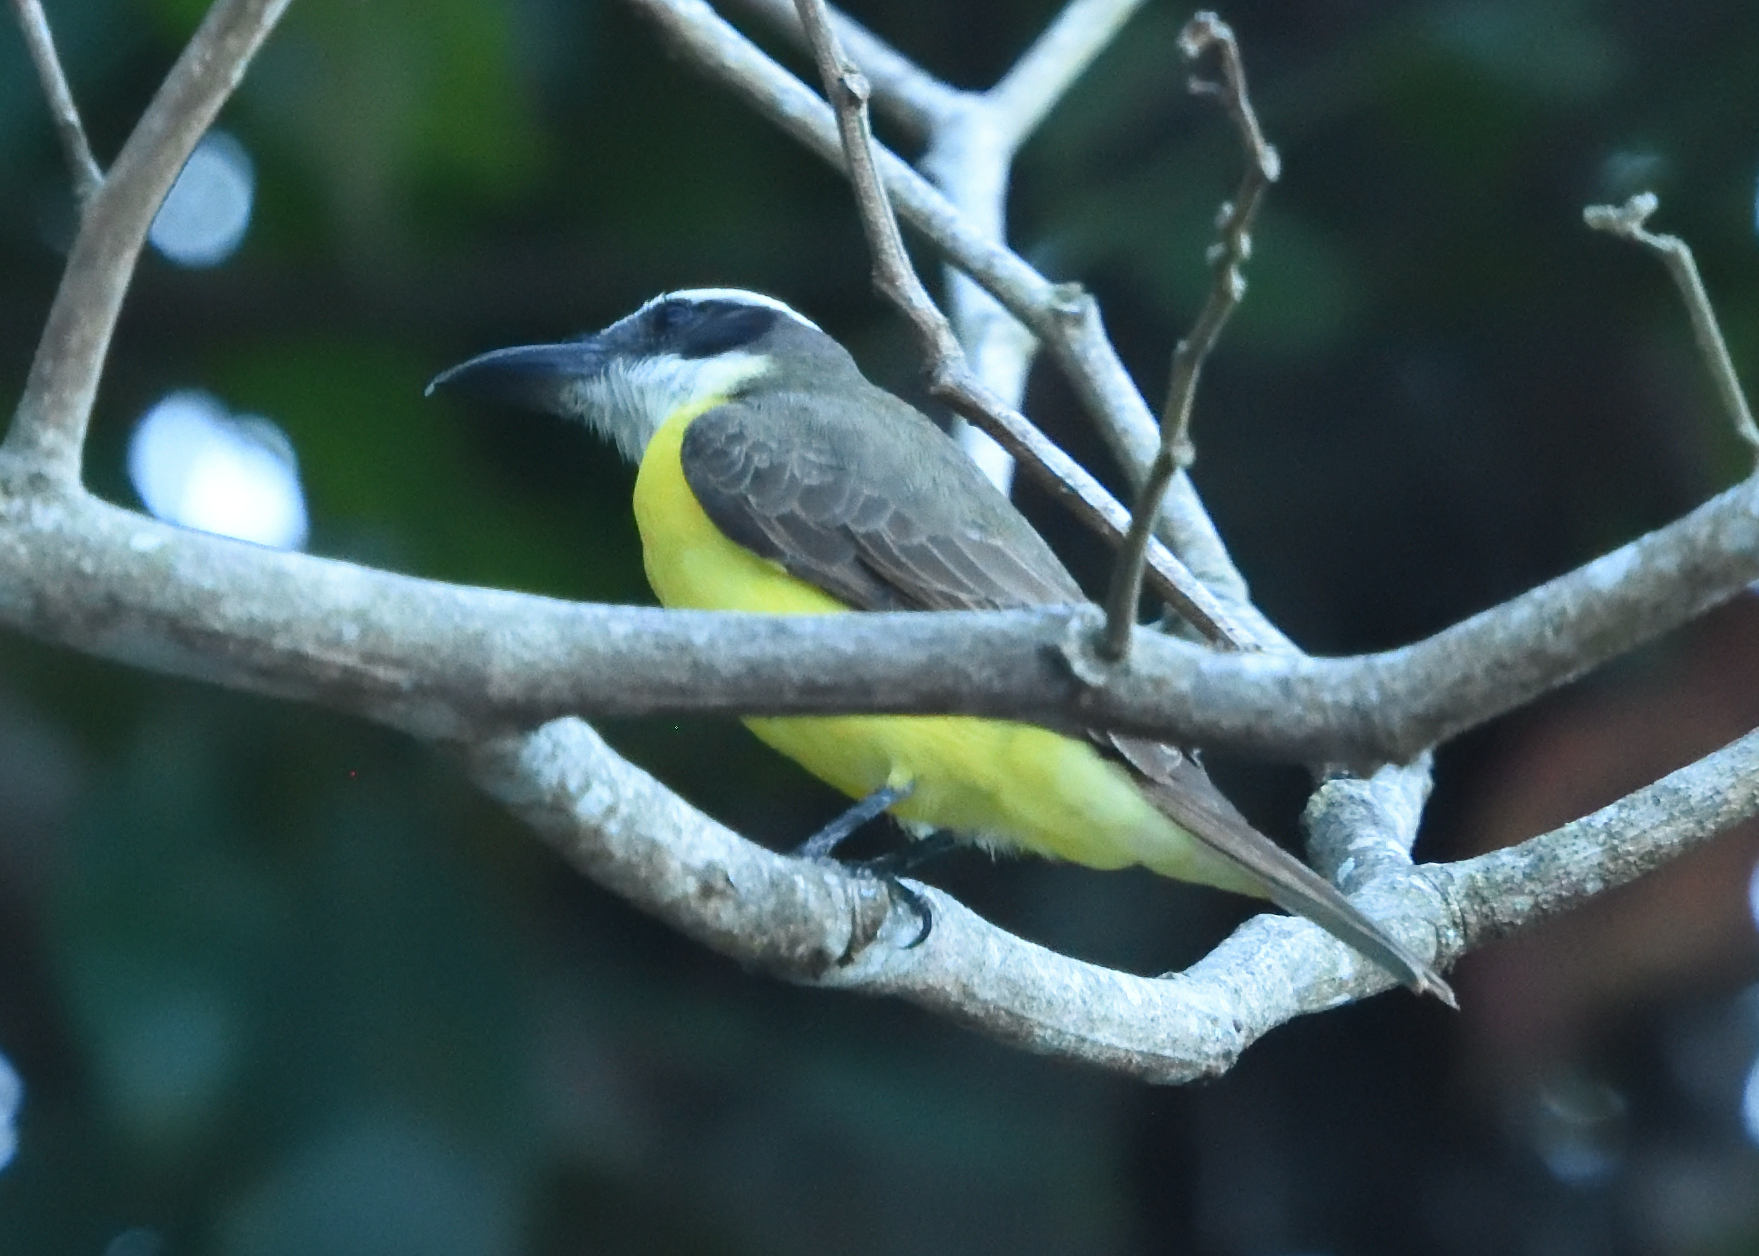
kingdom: Animalia
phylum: Chordata
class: Aves
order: Passeriformes
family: Tyrannidae
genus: Megarynchus
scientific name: Megarynchus pitangua
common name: Boat-billed flycatcher
